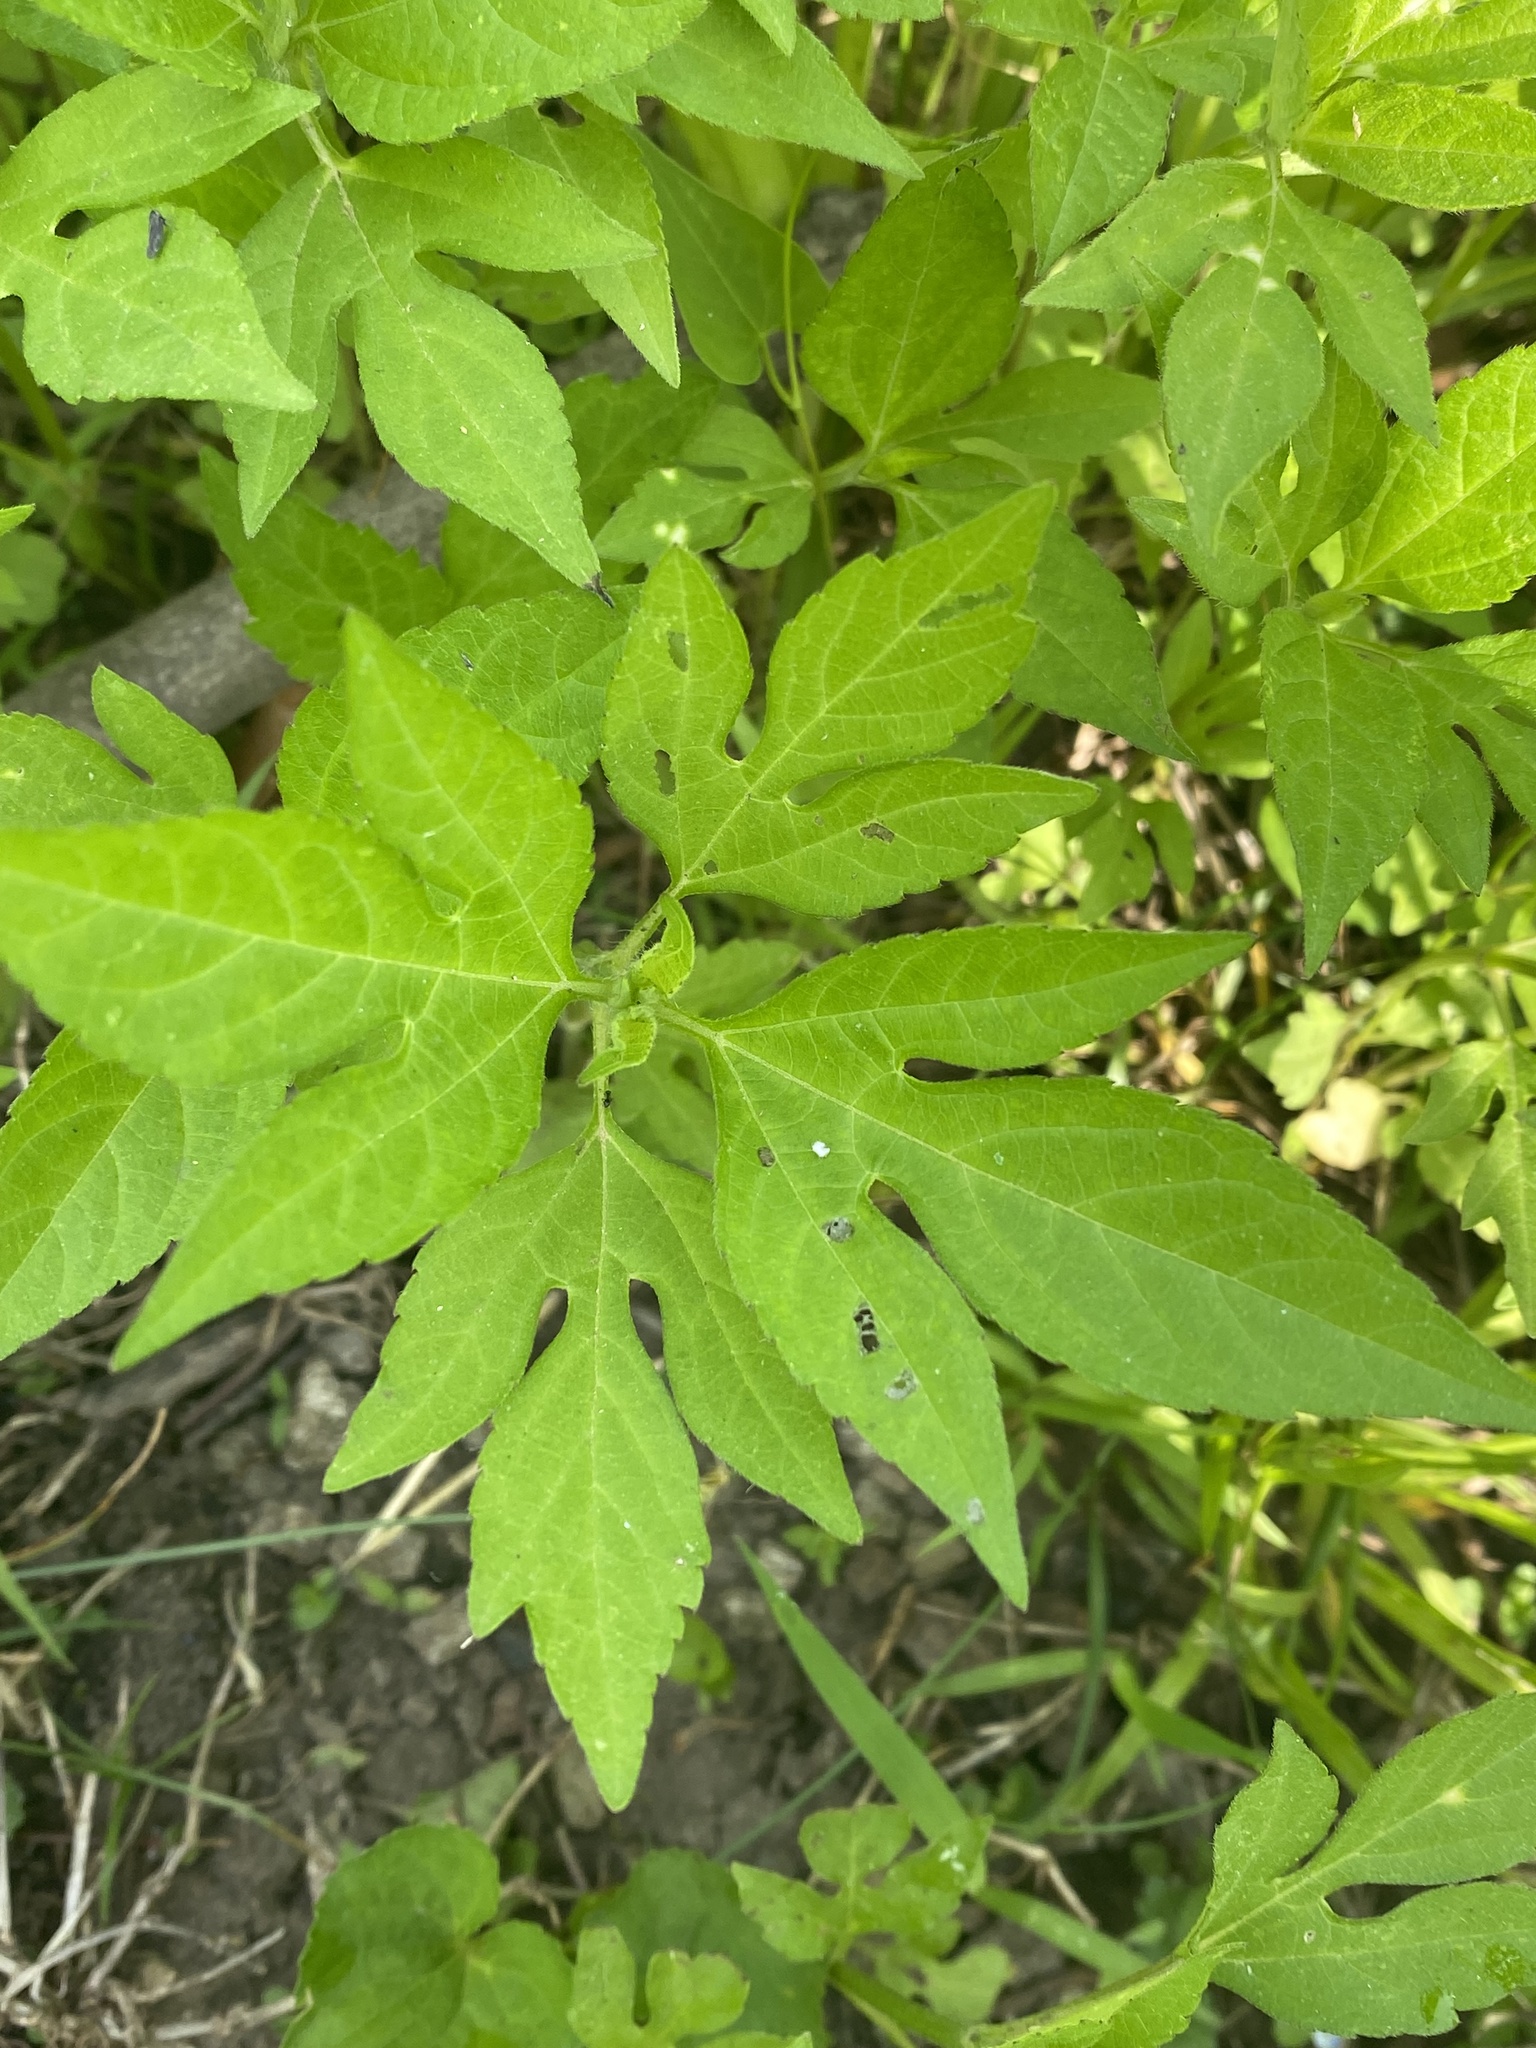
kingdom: Plantae
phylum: Tracheophyta
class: Magnoliopsida
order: Asterales
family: Asteraceae
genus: Ambrosia
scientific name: Ambrosia trifida
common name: Giant ragweed
